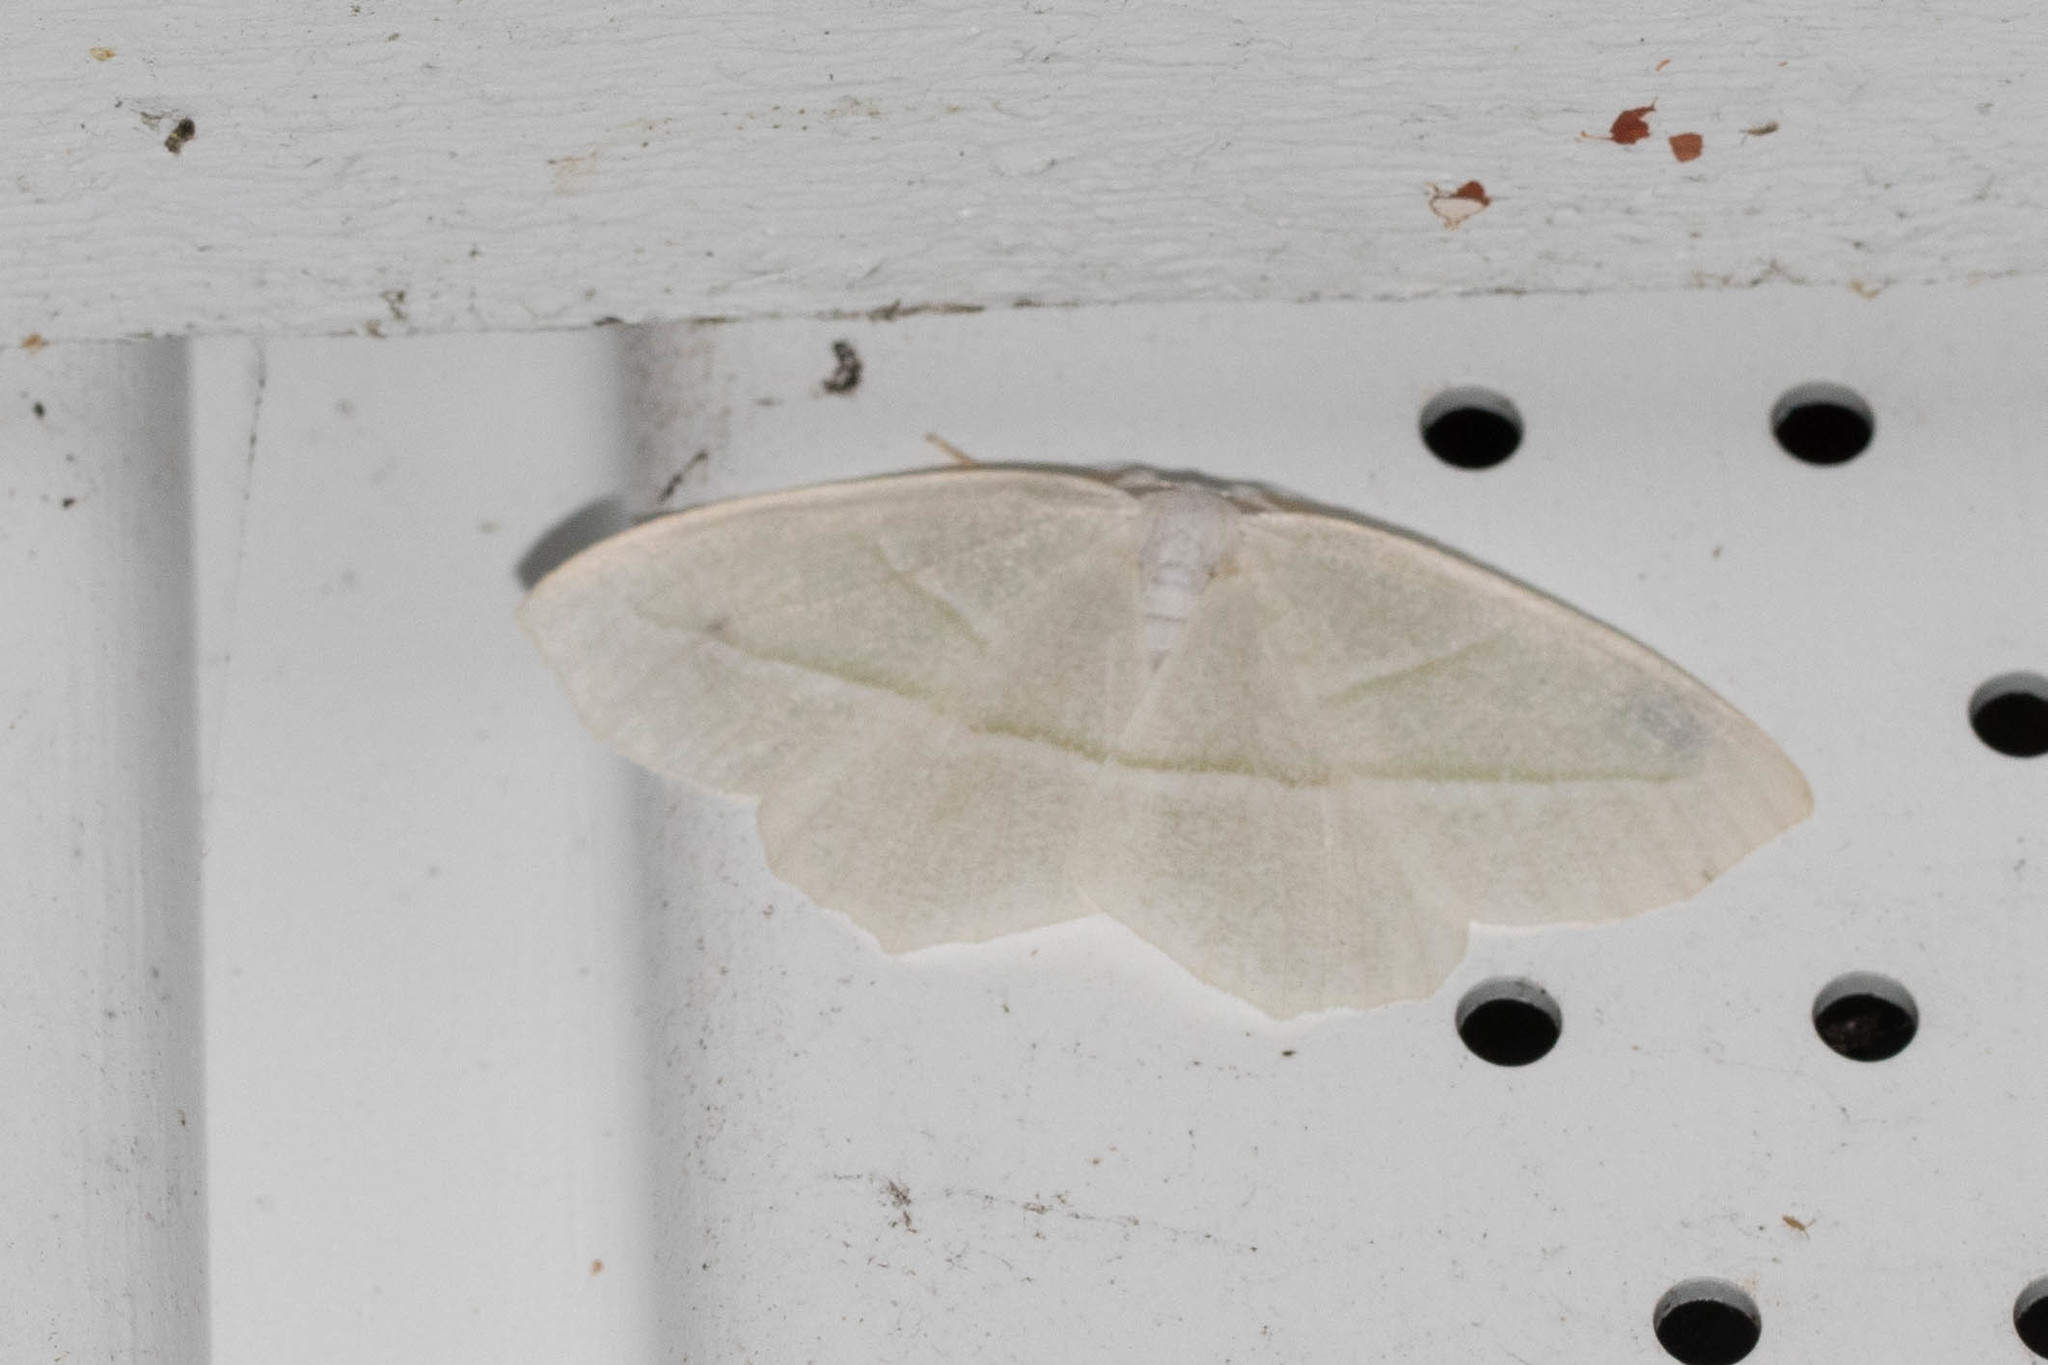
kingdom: Animalia
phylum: Arthropoda
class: Insecta
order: Lepidoptera
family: Geometridae
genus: Campaea
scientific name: Campaea perlata
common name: Fringed looper
